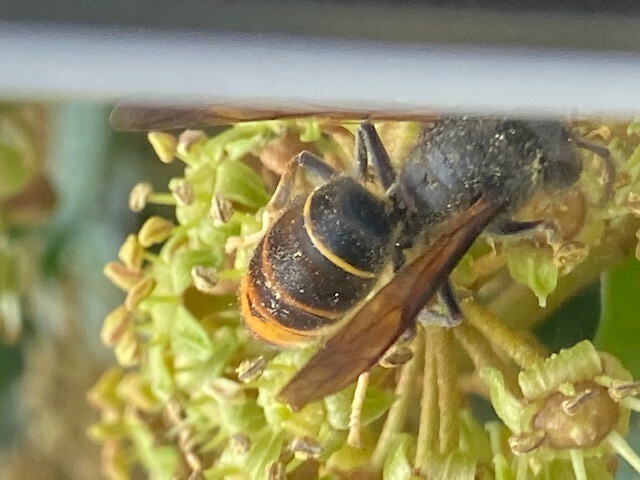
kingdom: Animalia
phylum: Arthropoda
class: Insecta
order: Hymenoptera
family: Vespidae
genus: Vespa
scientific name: Vespa velutina
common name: Asian hornet
